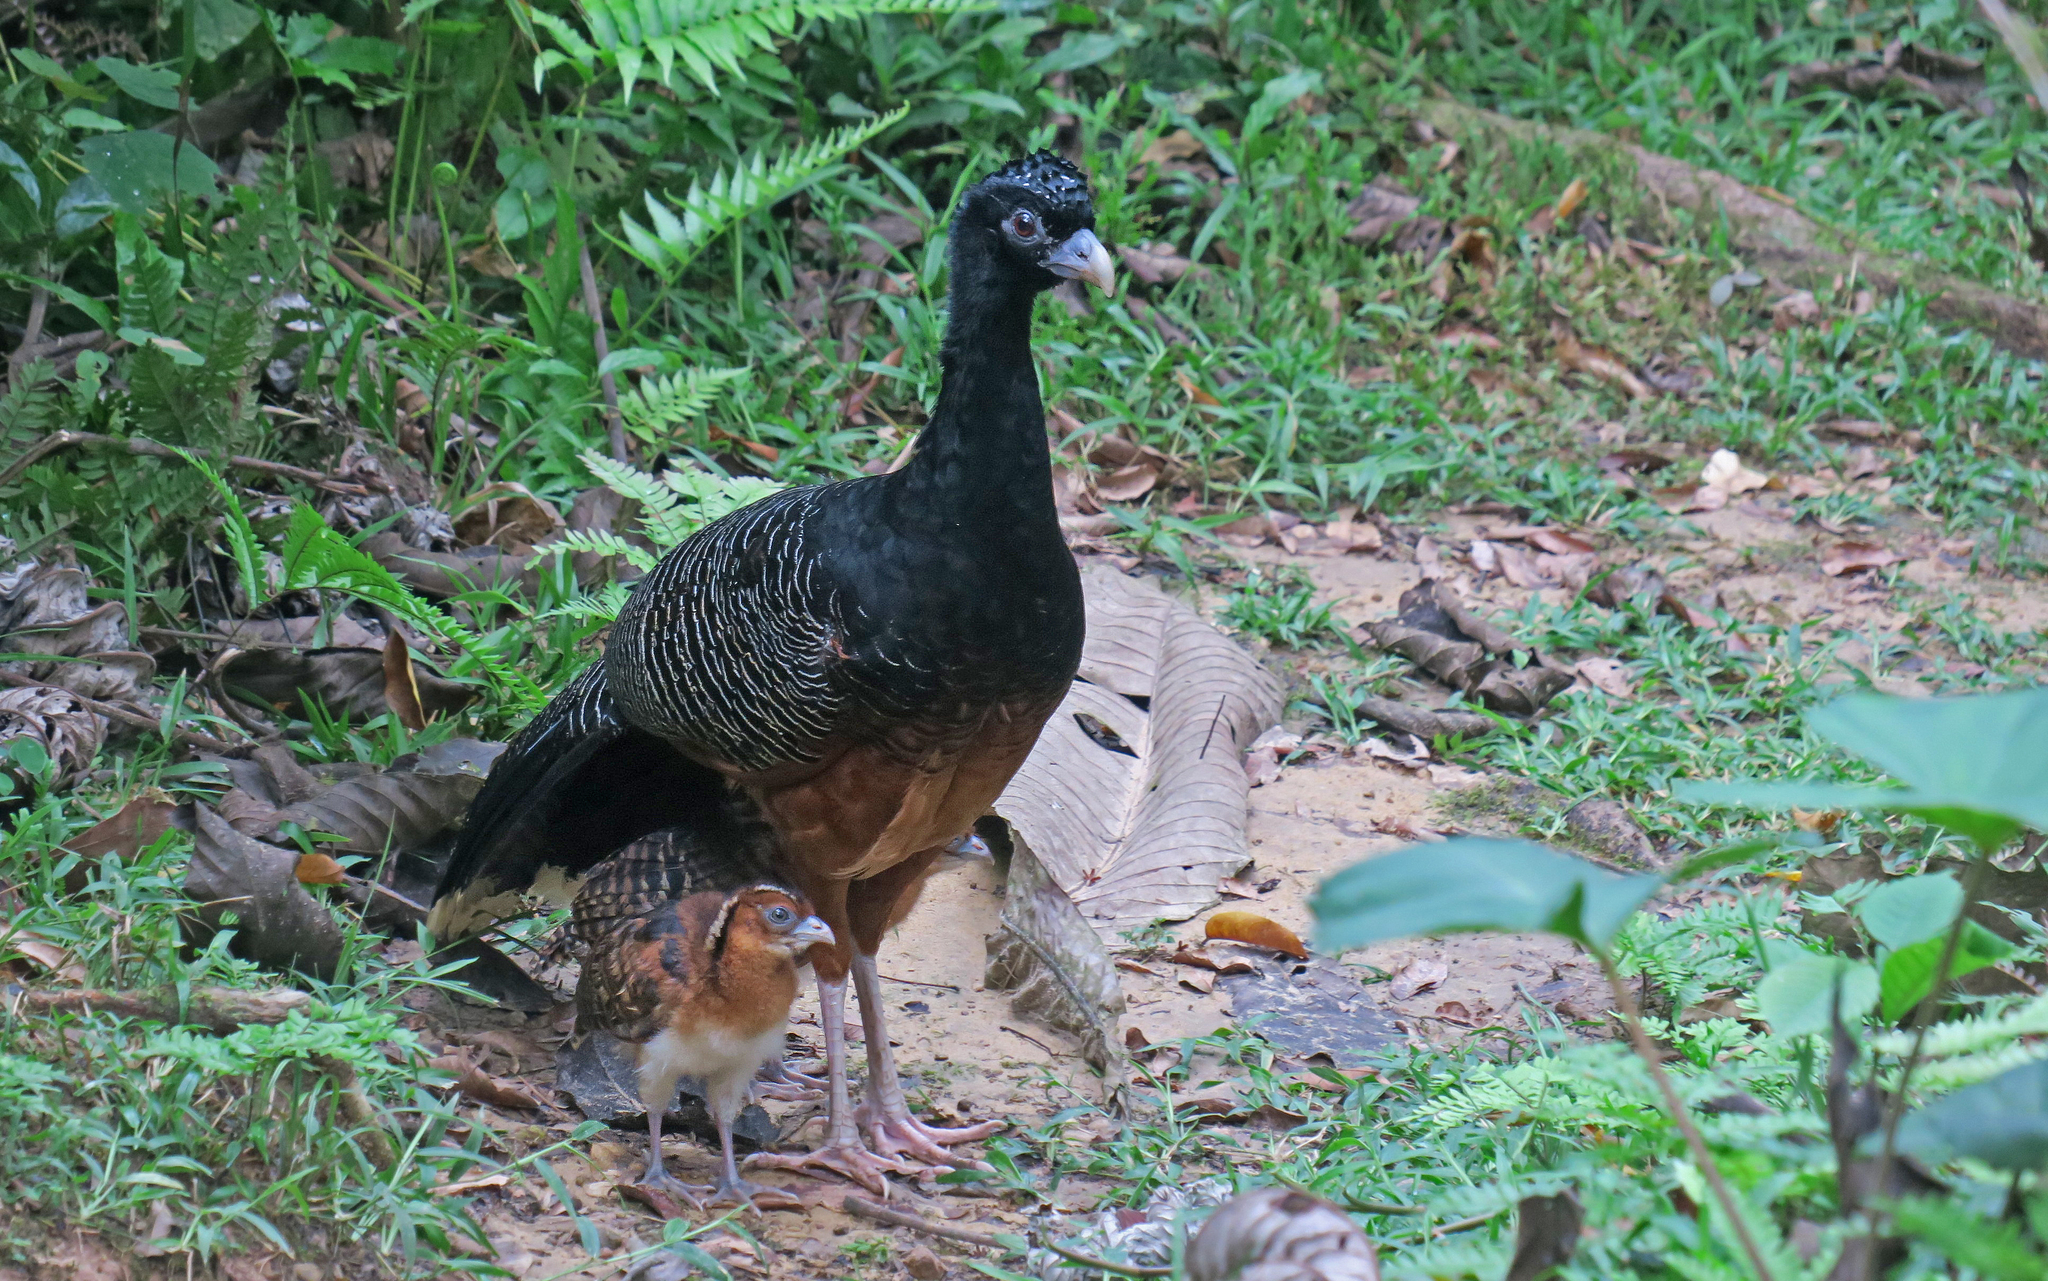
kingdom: Animalia
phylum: Chordata
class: Aves
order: Galliformes
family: Cracidae
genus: Crax
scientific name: Crax alberti
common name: Blue-billed curassow
